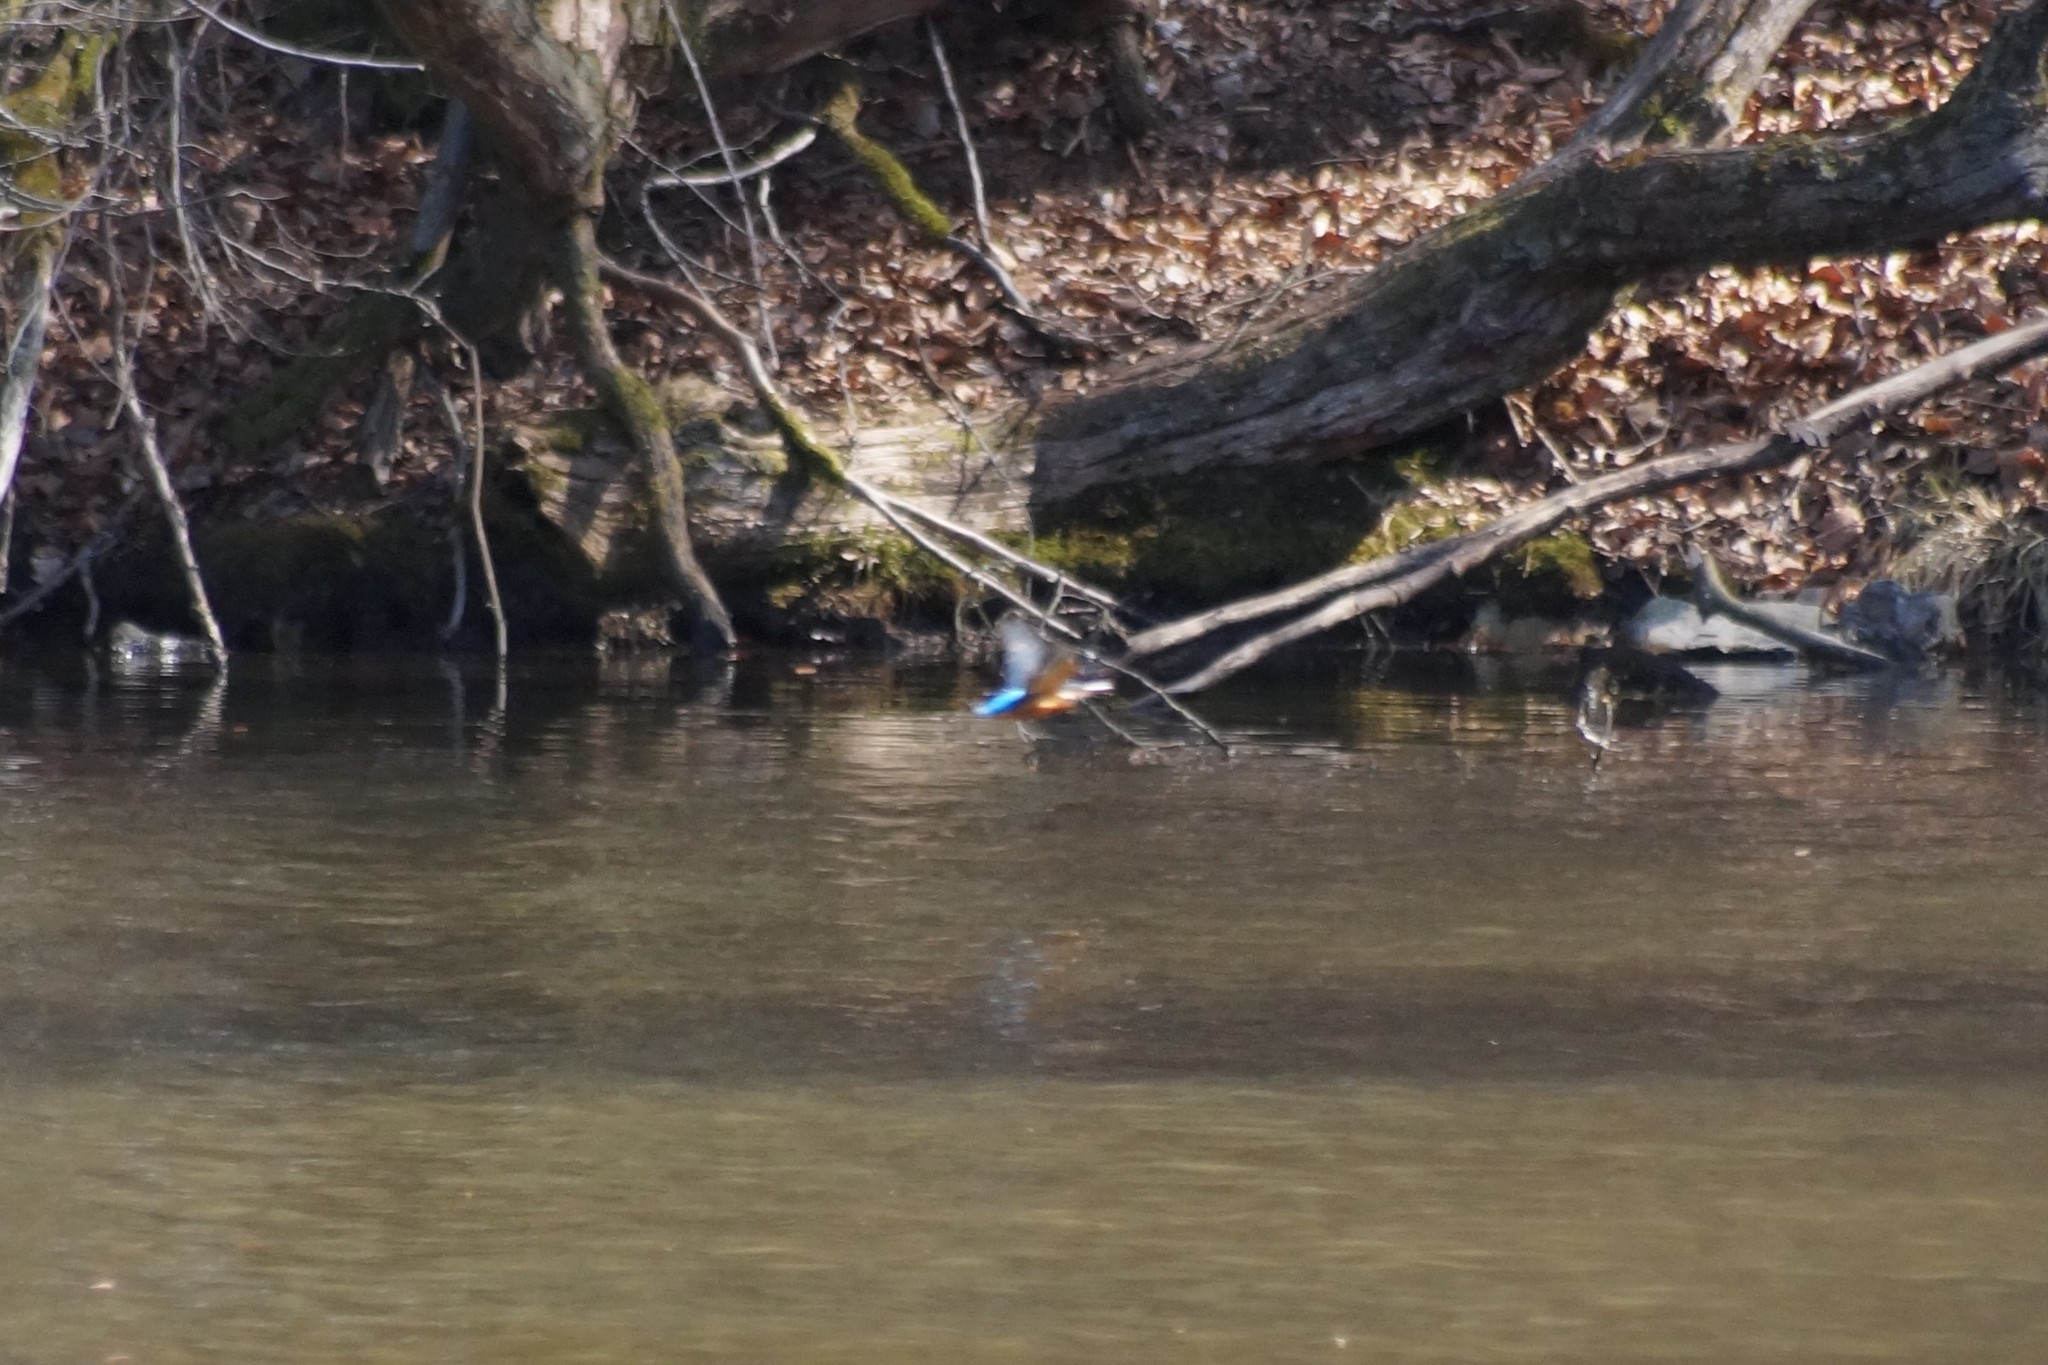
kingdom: Animalia
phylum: Chordata
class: Aves
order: Coraciiformes
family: Alcedinidae
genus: Alcedo
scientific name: Alcedo atthis
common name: Common kingfisher
